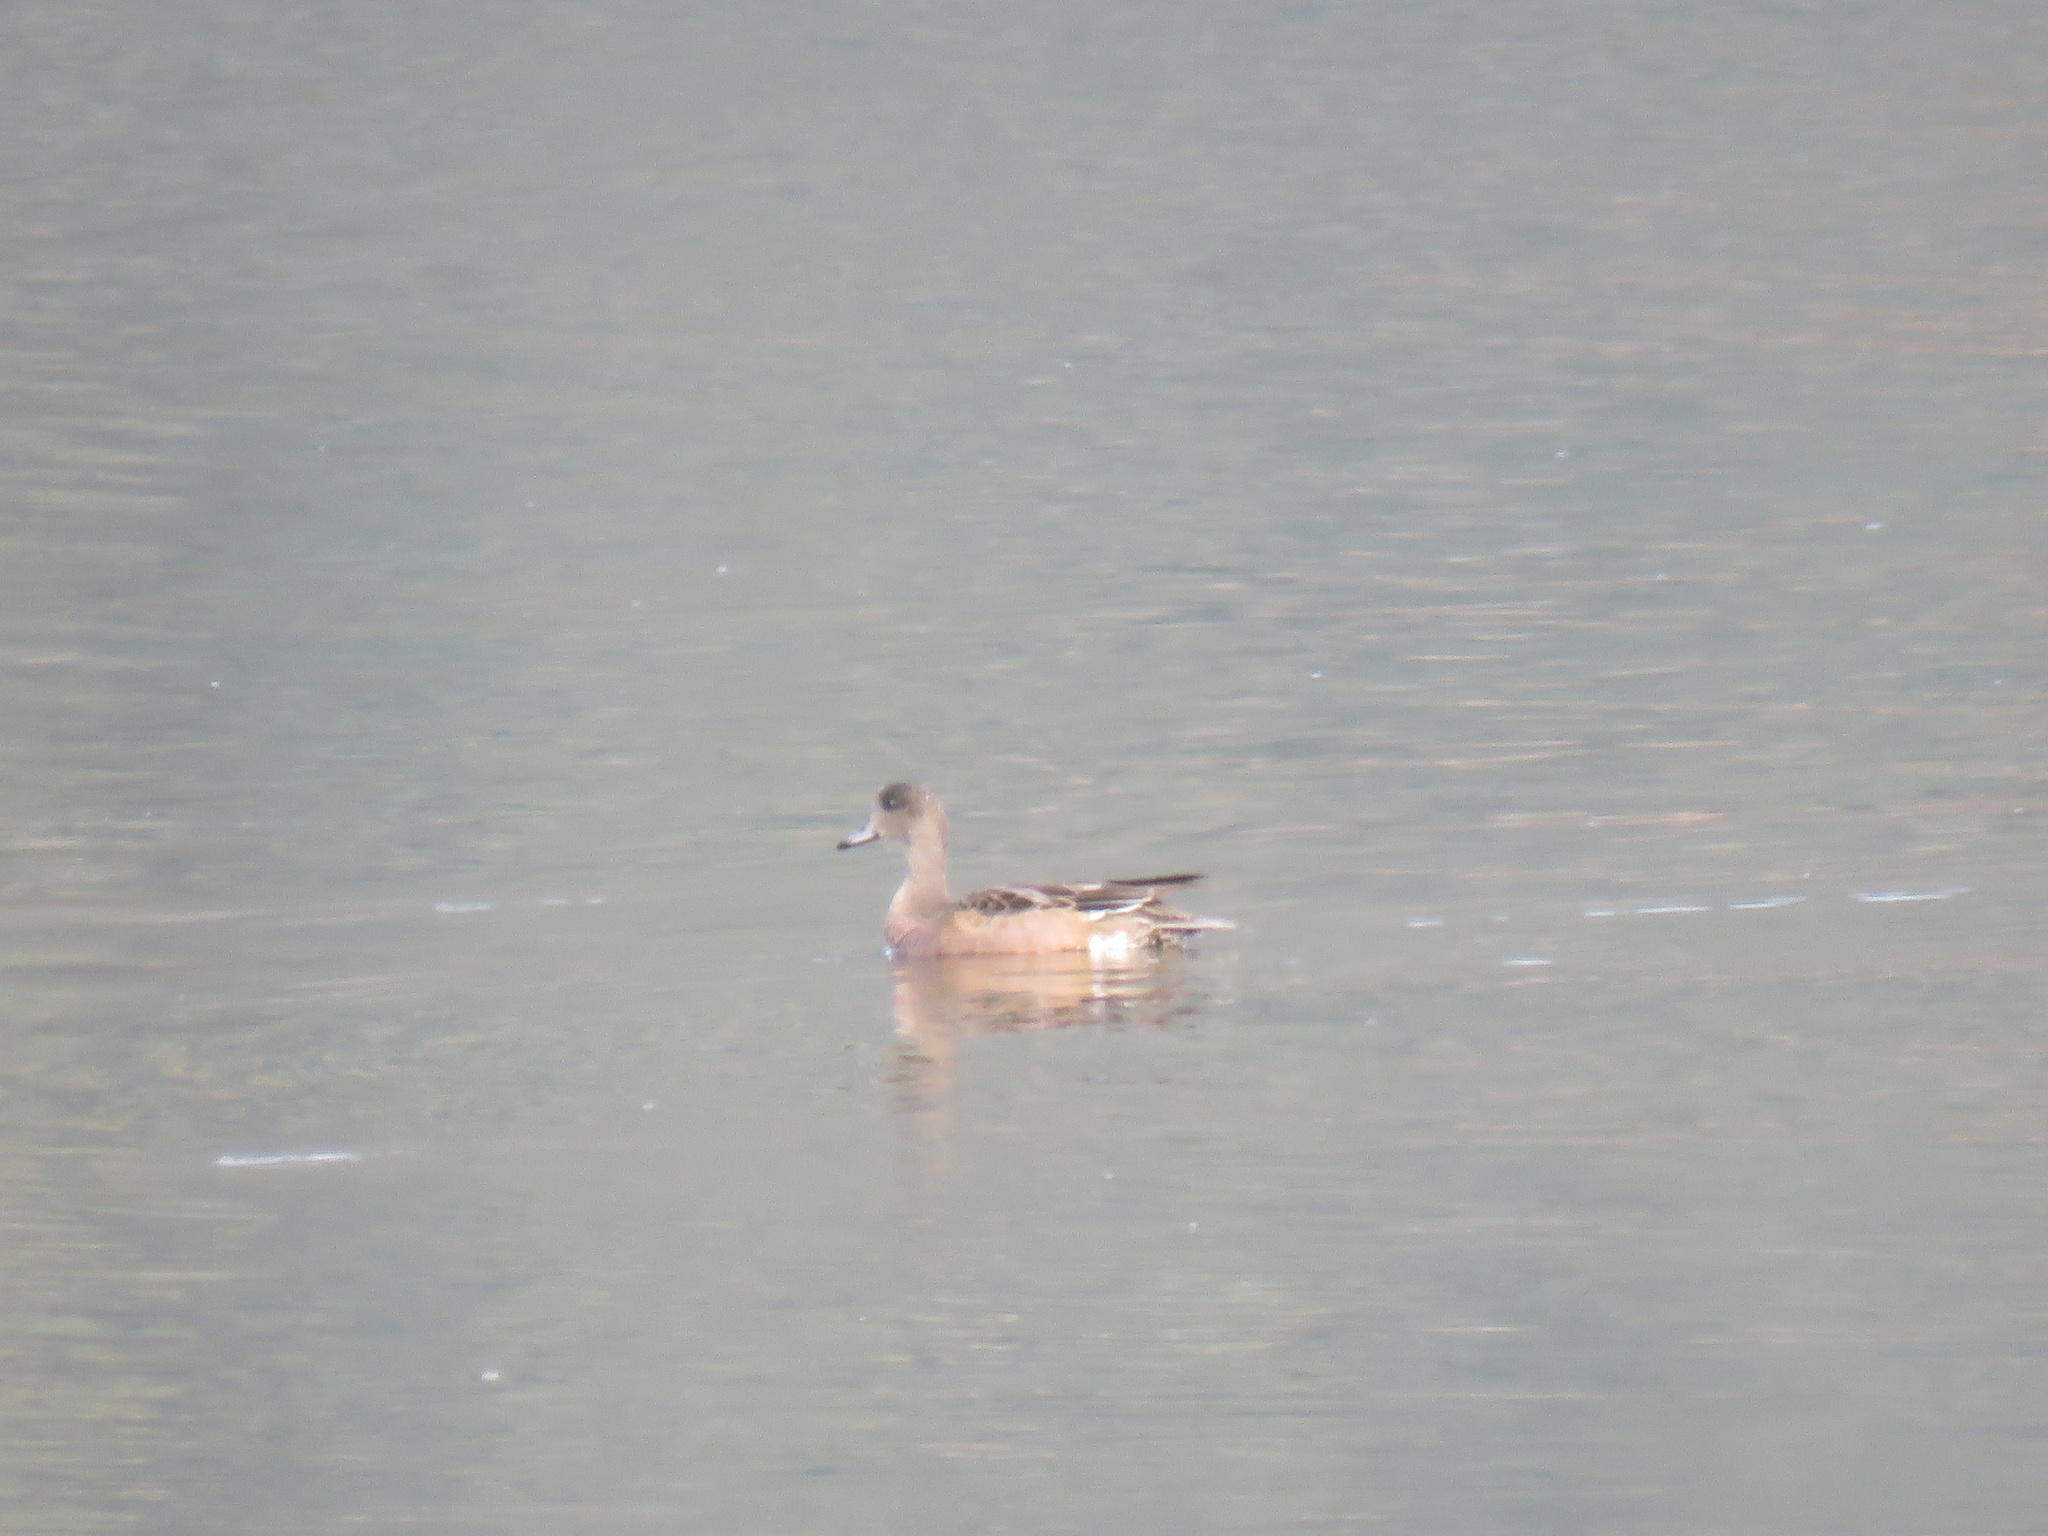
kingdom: Animalia
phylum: Chordata
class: Aves
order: Anseriformes
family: Anatidae
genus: Mareca
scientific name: Mareca americana
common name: American wigeon
